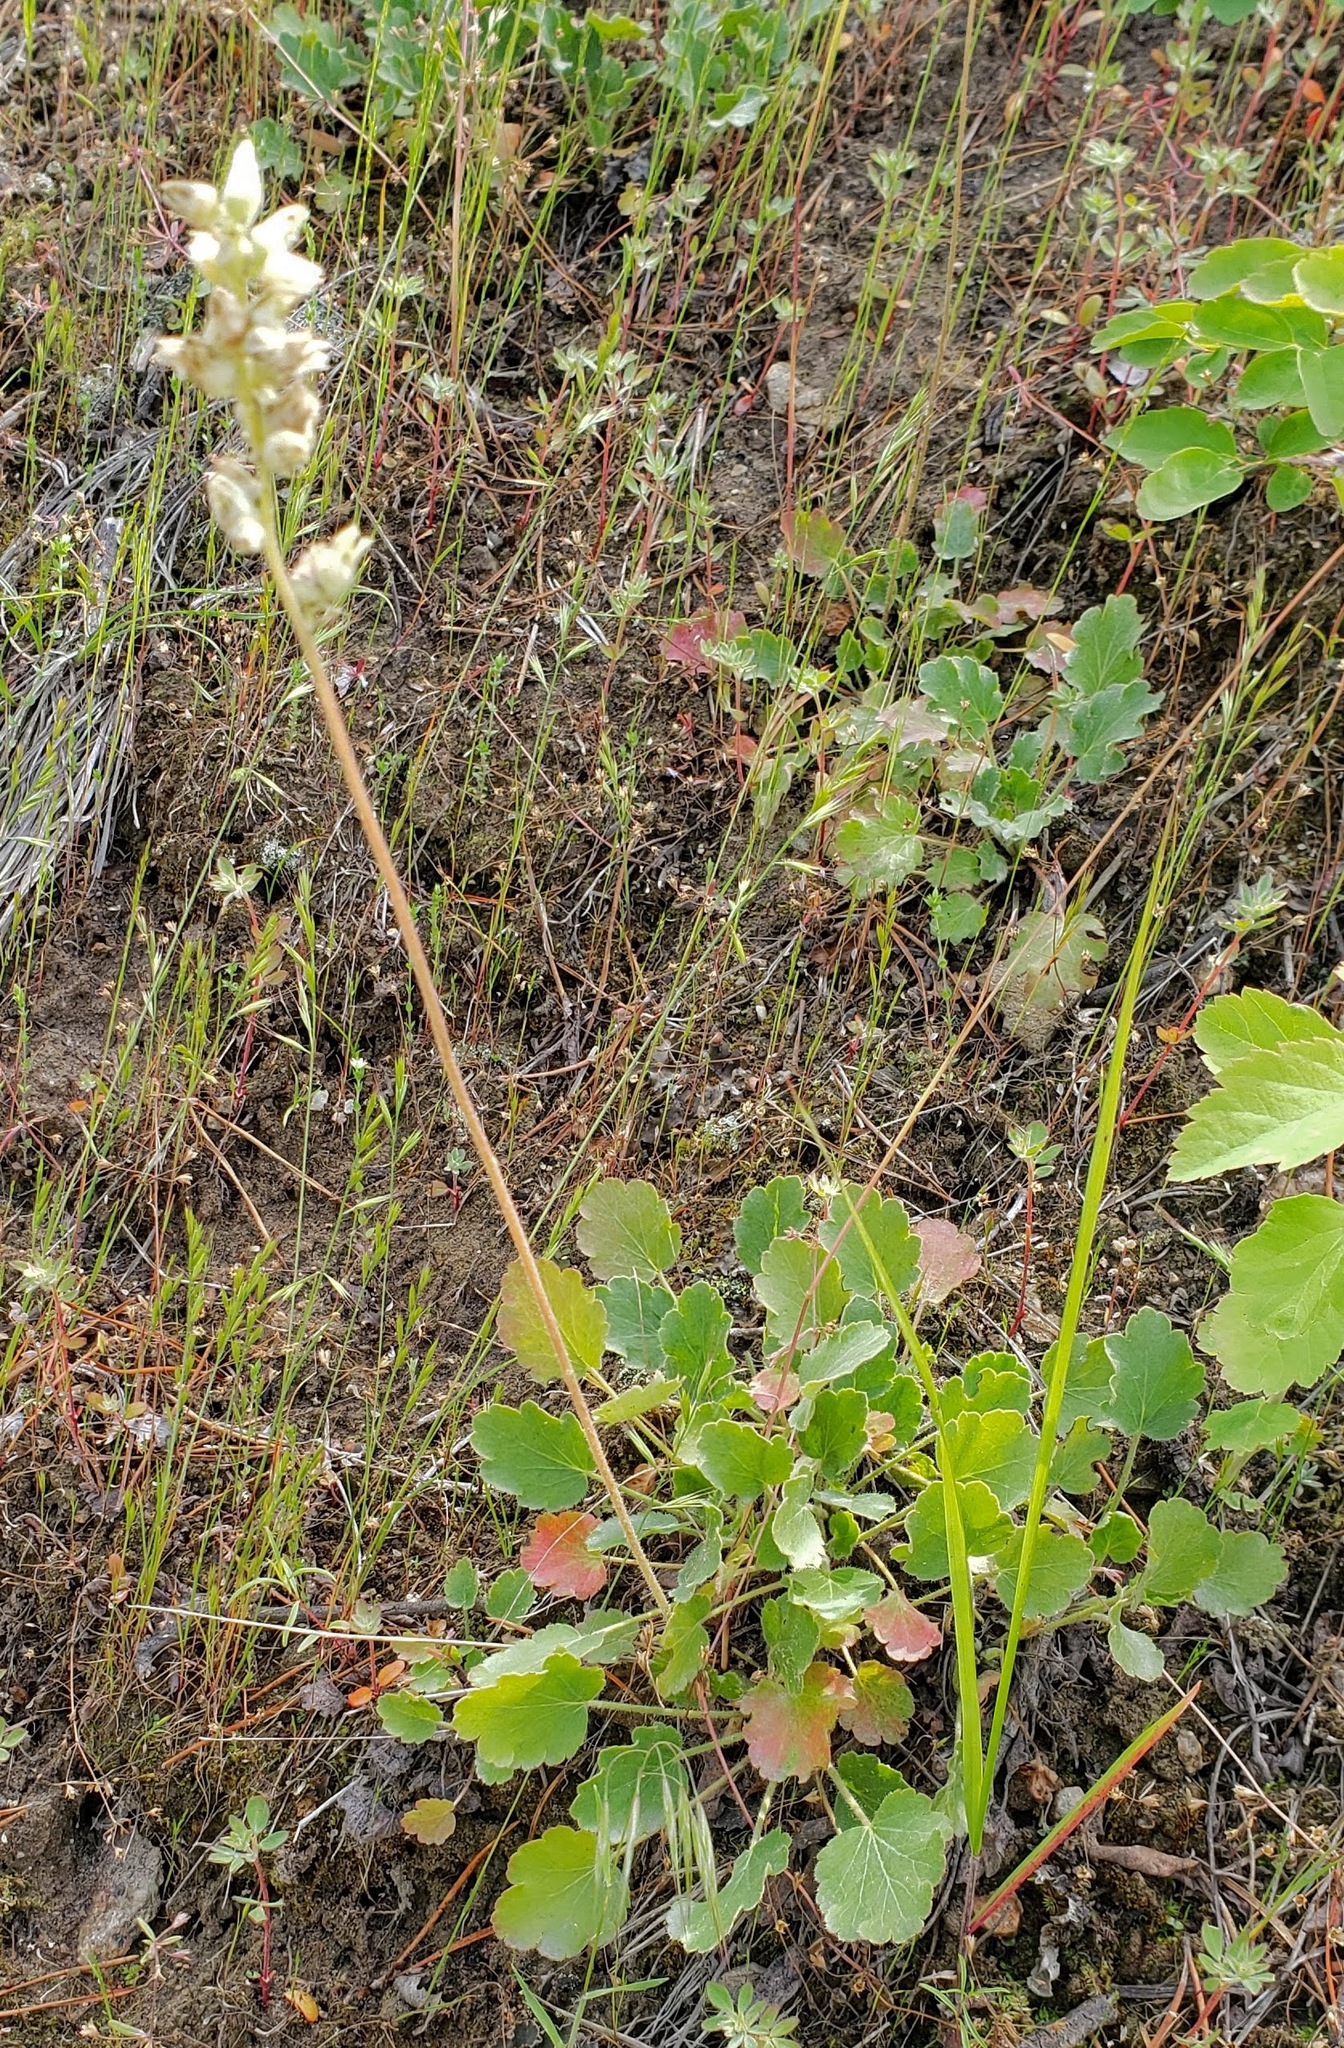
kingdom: Plantae
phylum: Tracheophyta
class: Magnoliopsida
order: Saxifragales
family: Saxifragaceae
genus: Heuchera
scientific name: Heuchera cylindrica
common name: Mat alumroot
